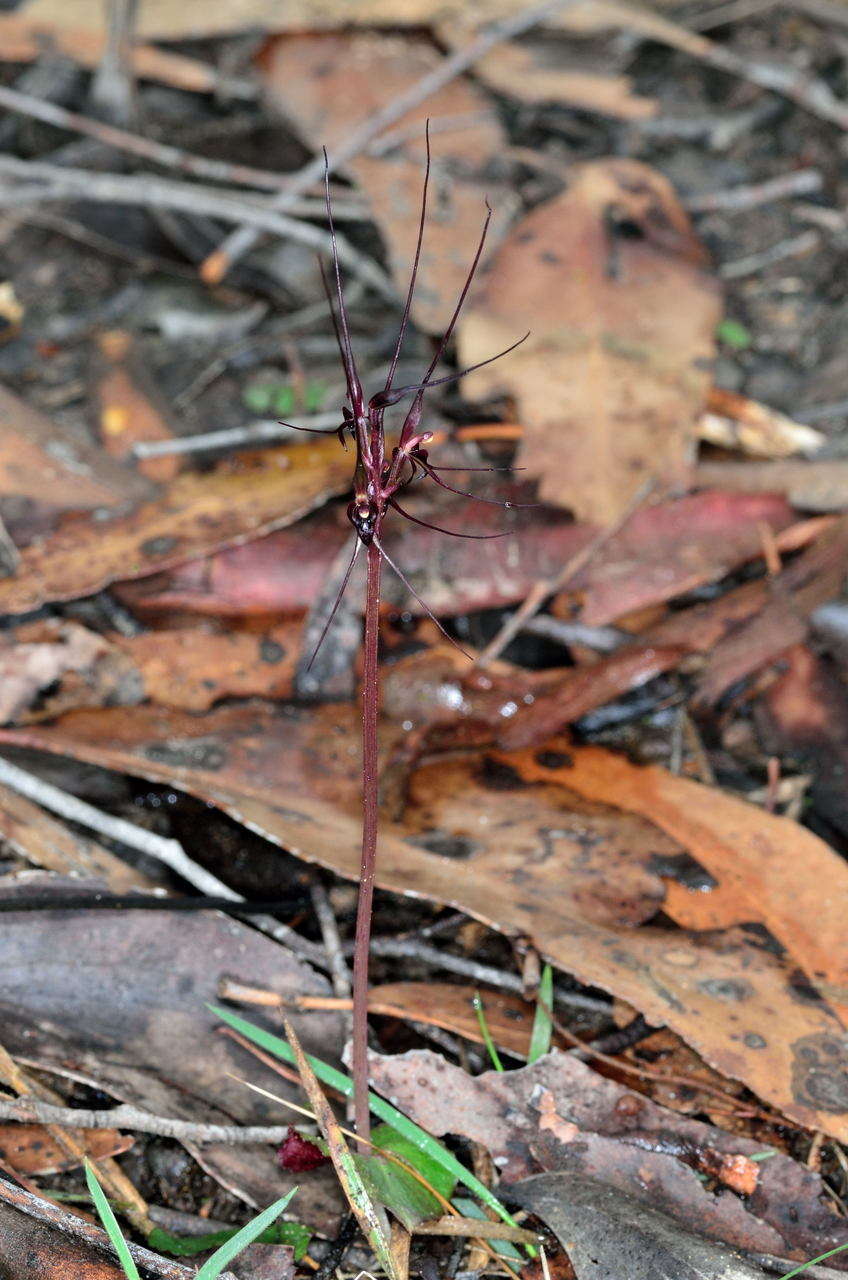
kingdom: Plantae
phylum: Tracheophyta
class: Liliopsida
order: Asparagales
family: Orchidaceae
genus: Acianthus
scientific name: Acianthus caudatus
